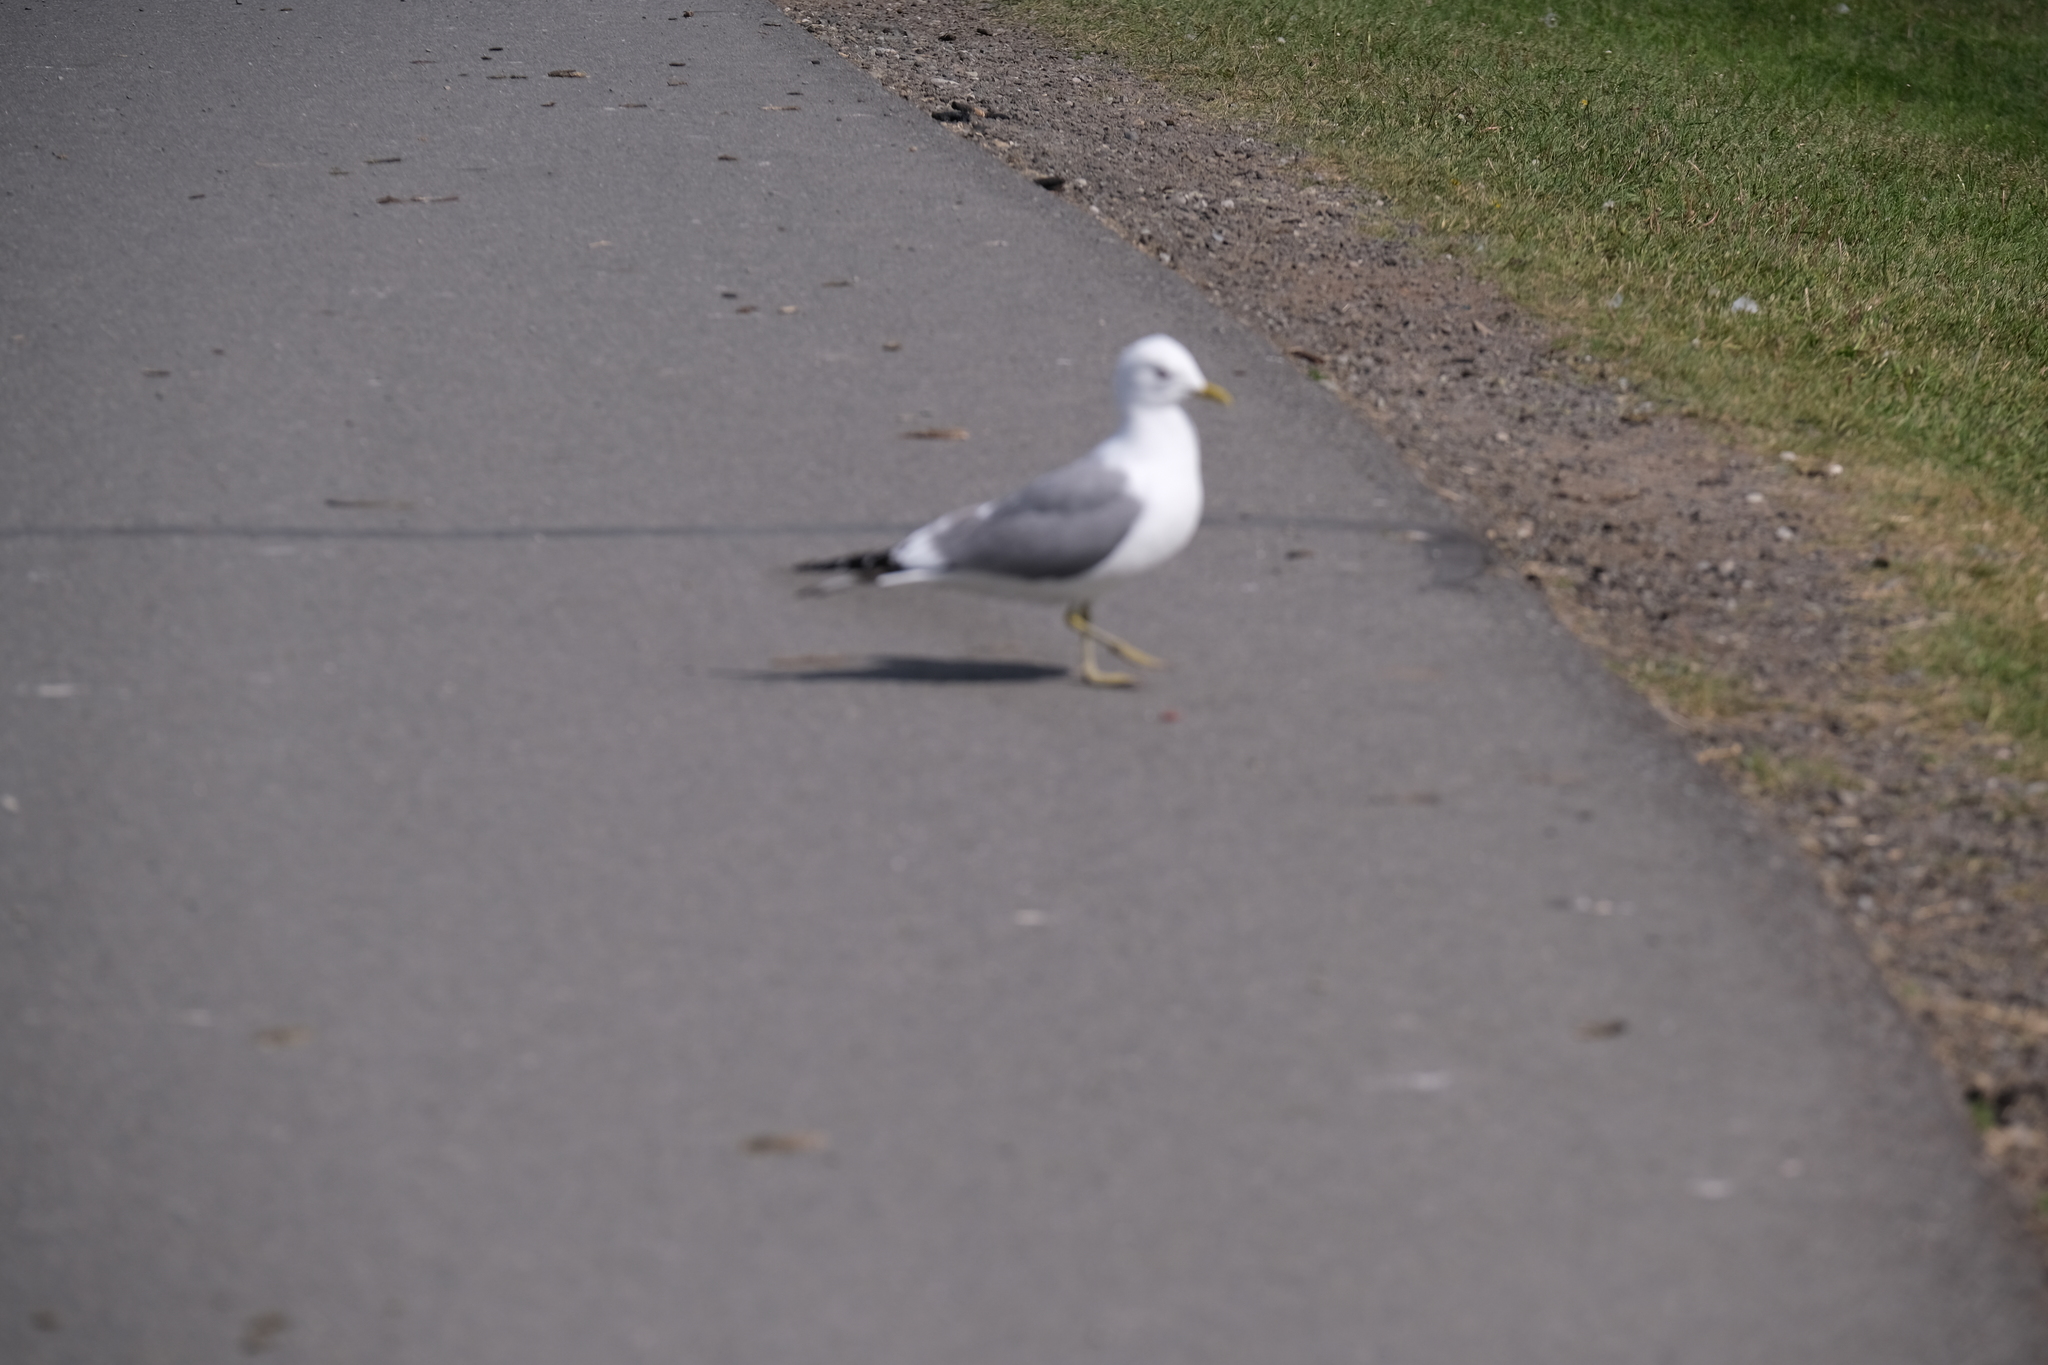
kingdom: Animalia
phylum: Chordata
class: Aves
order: Charadriiformes
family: Laridae
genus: Larus
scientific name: Larus brachyrhynchus
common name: Short-billed gull
